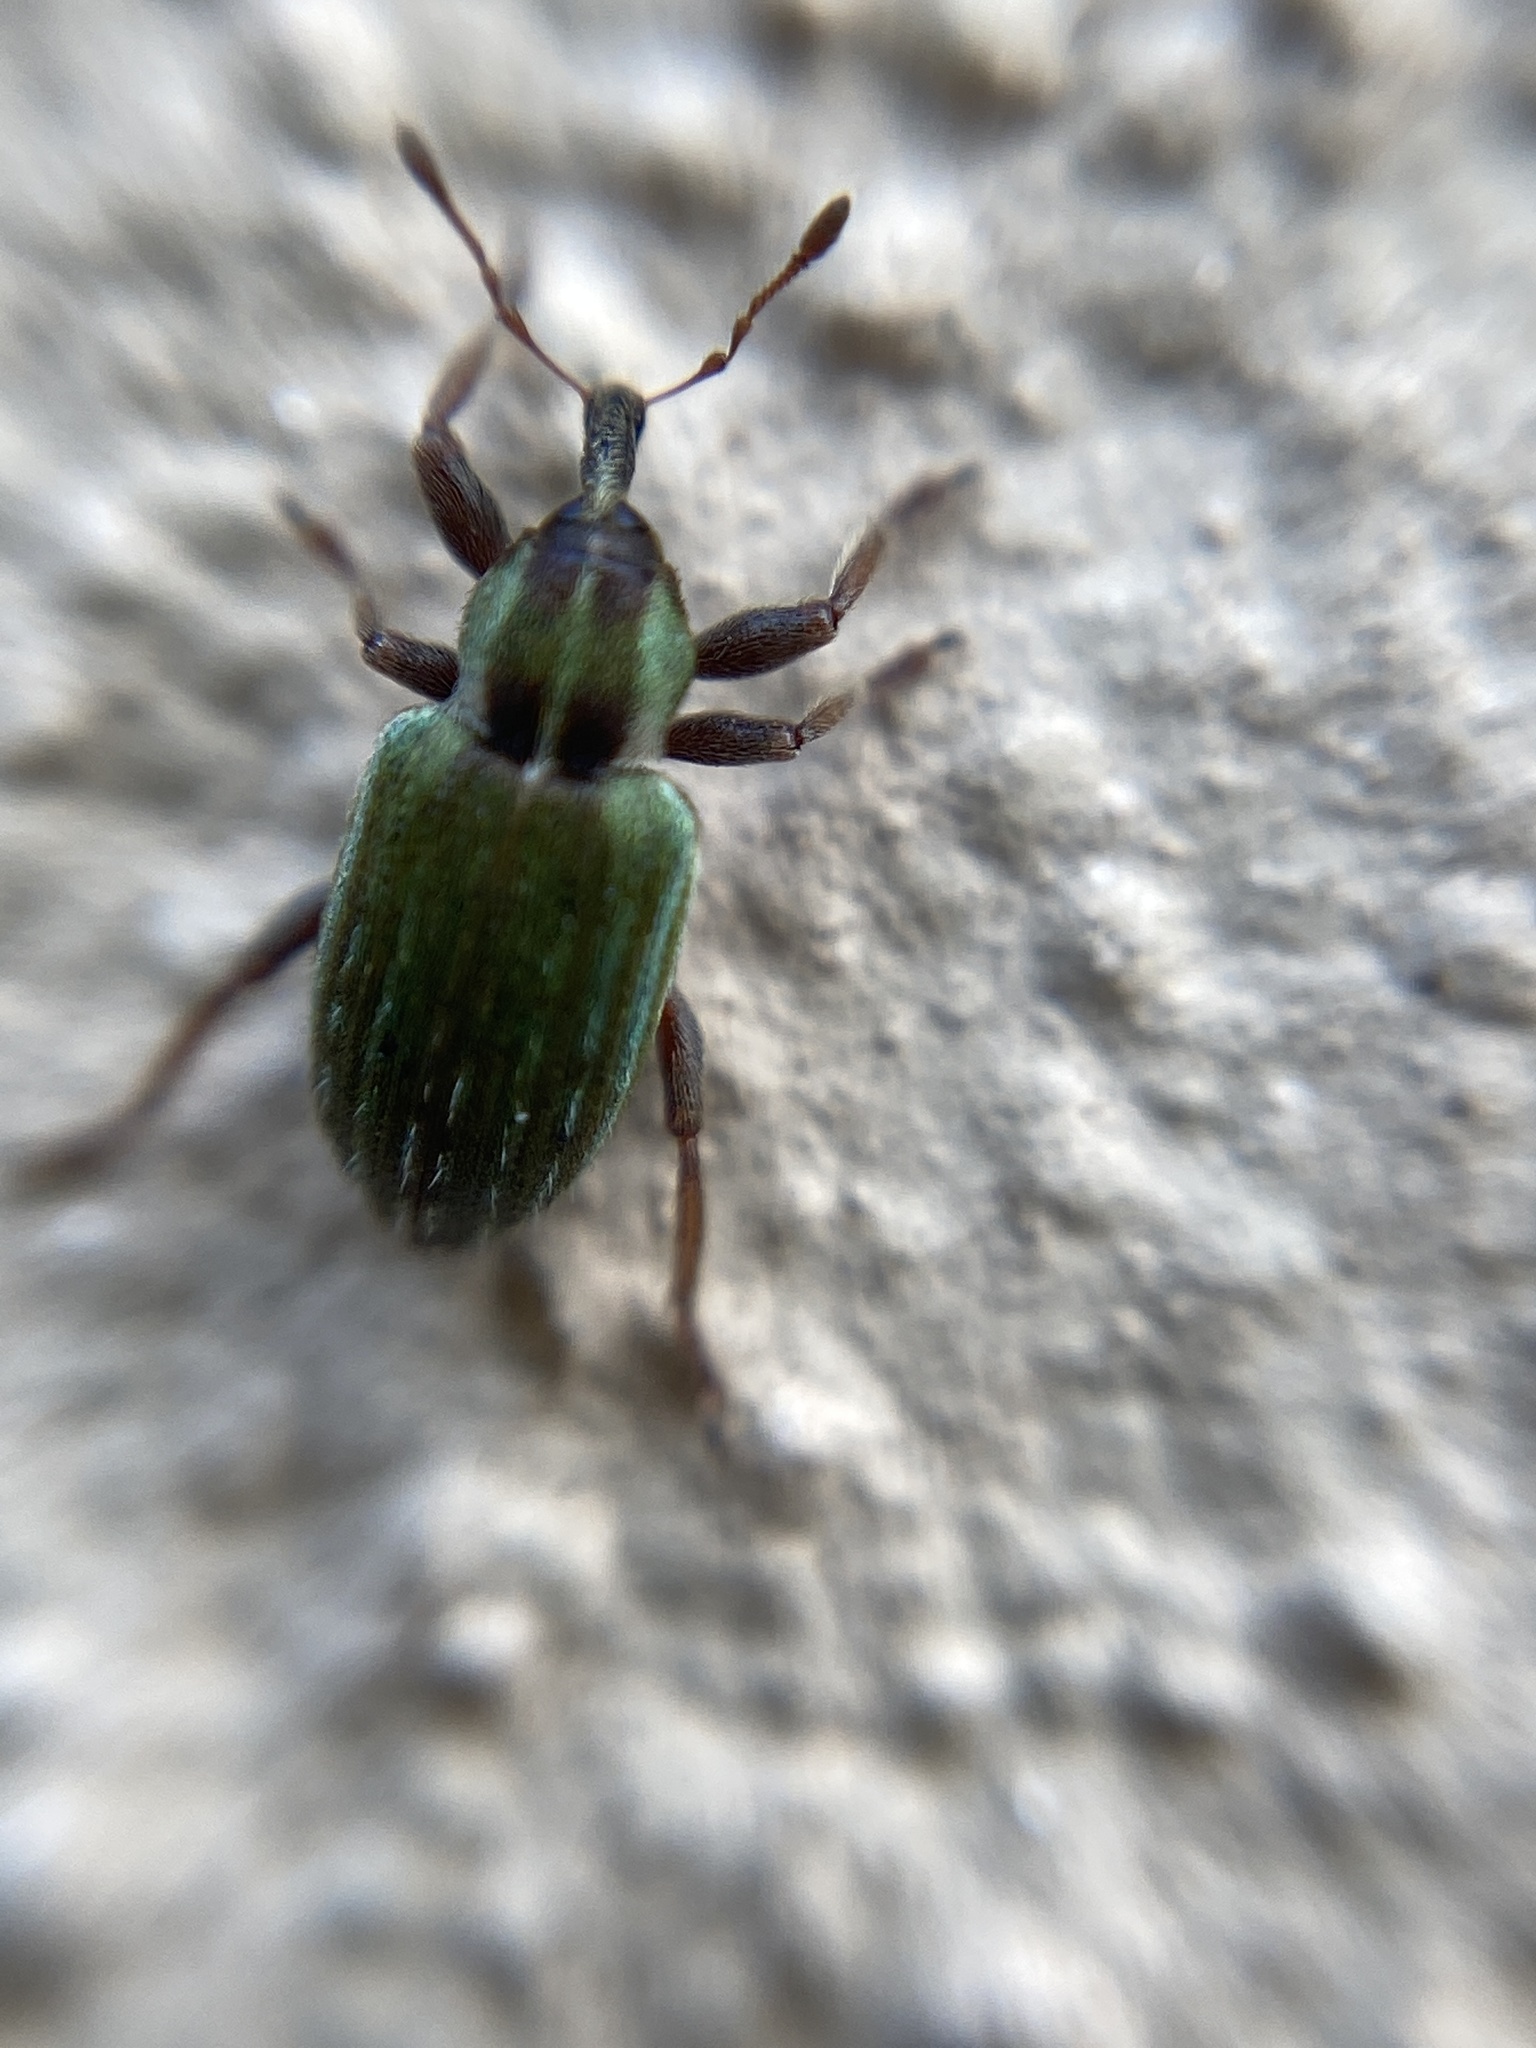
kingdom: Animalia
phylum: Arthropoda
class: Insecta
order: Coleoptera
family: Curculionidae
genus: Hypera
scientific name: Hypera nigrirostris
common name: Black-beaked green weevil
